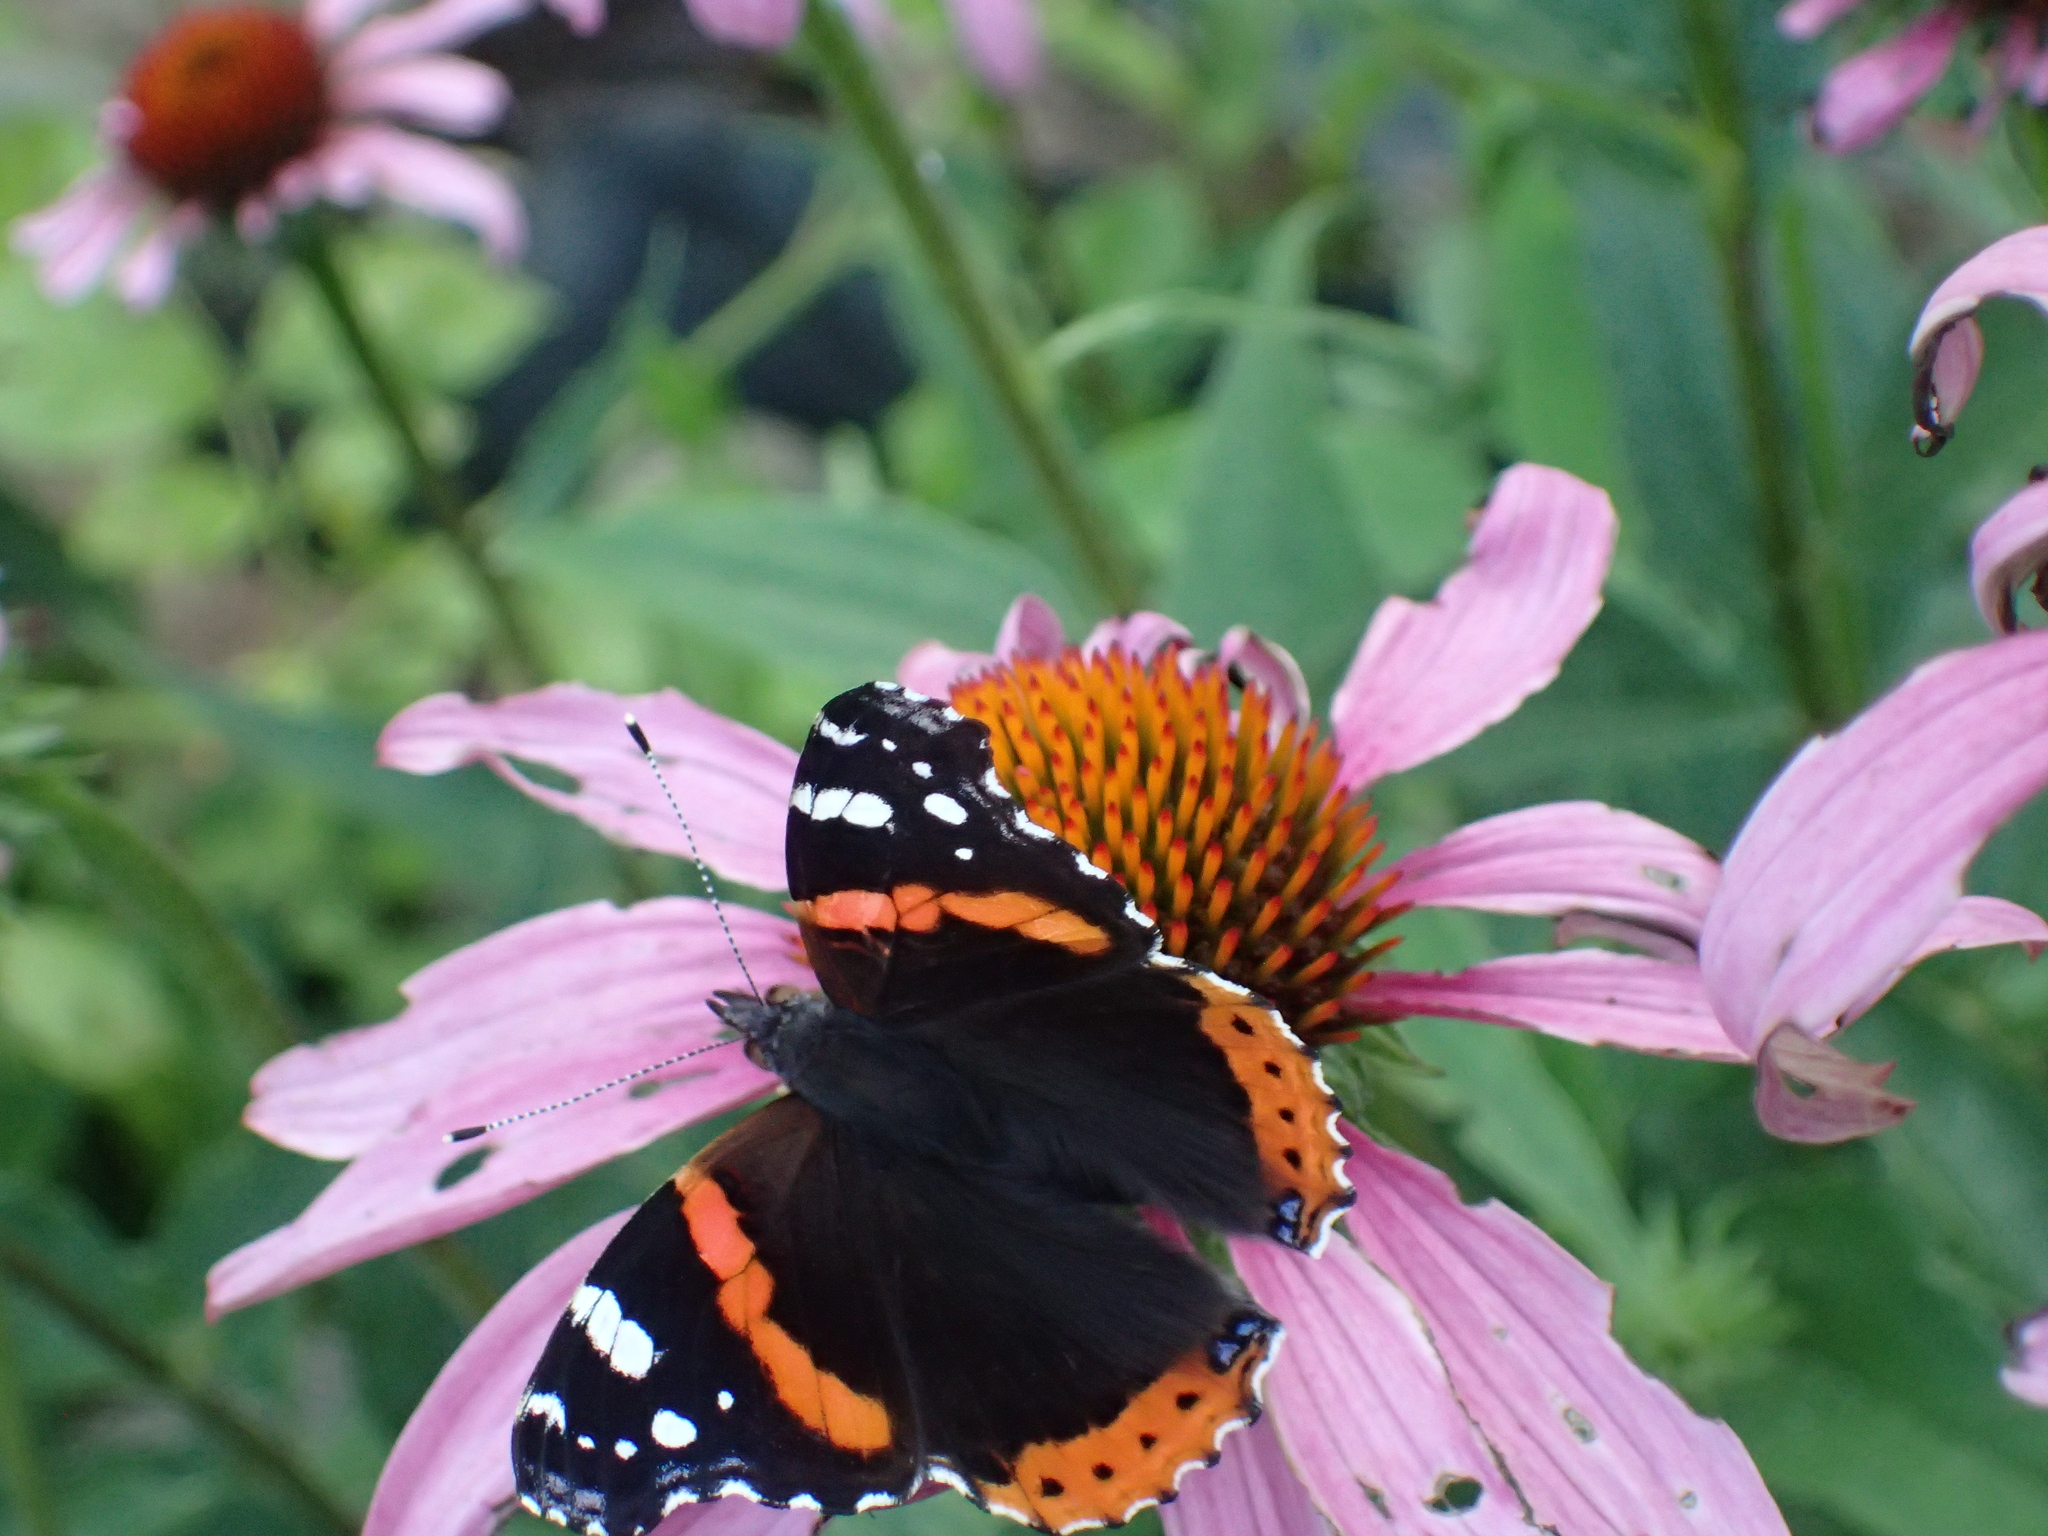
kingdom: Animalia
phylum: Arthropoda
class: Insecta
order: Lepidoptera
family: Nymphalidae
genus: Vanessa
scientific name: Vanessa atalanta
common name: Red admiral
